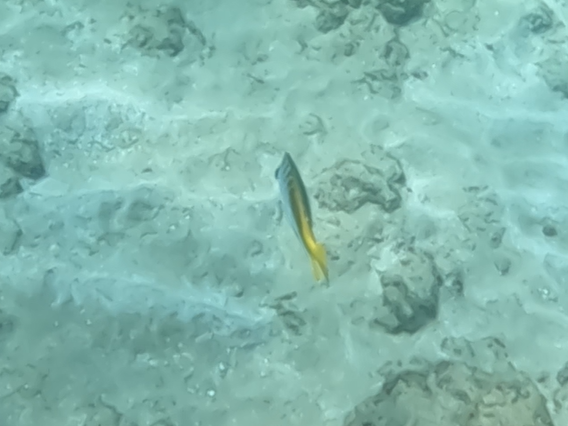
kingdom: Animalia
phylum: Chordata
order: Perciformes
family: Chaetodontidae
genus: Chaetodon
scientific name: Chaetodon auriga
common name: Threadfin butterflyfish
